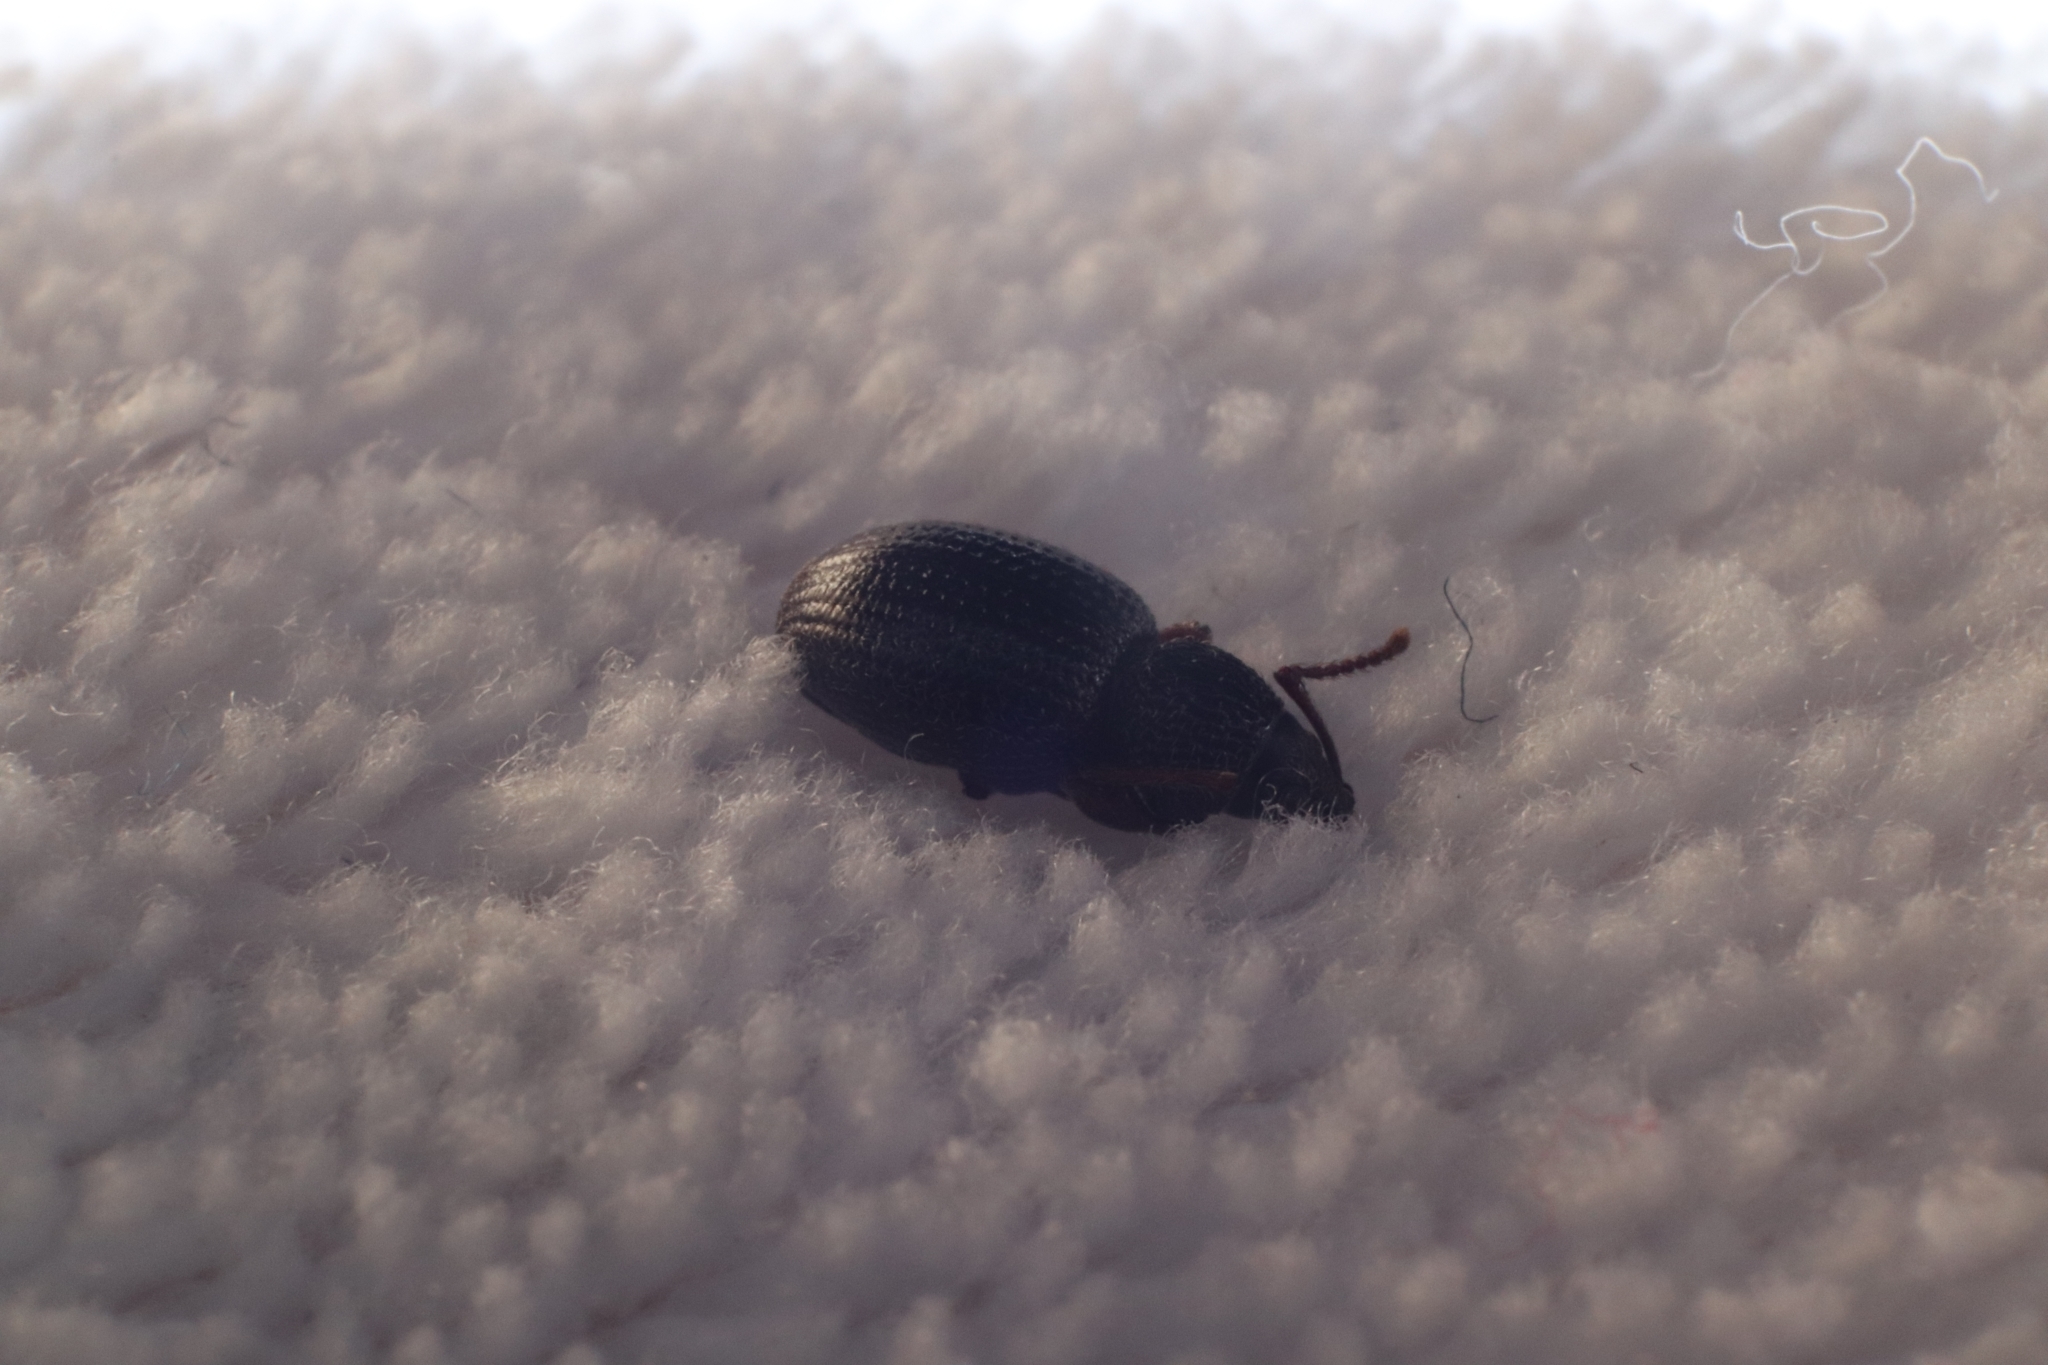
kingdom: Animalia
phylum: Arthropoda
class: Insecta
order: Coleoptera
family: Curculionidae
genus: Otiorhynchus
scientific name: Otiorhynchus ovatus
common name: Strawberry root weevil
